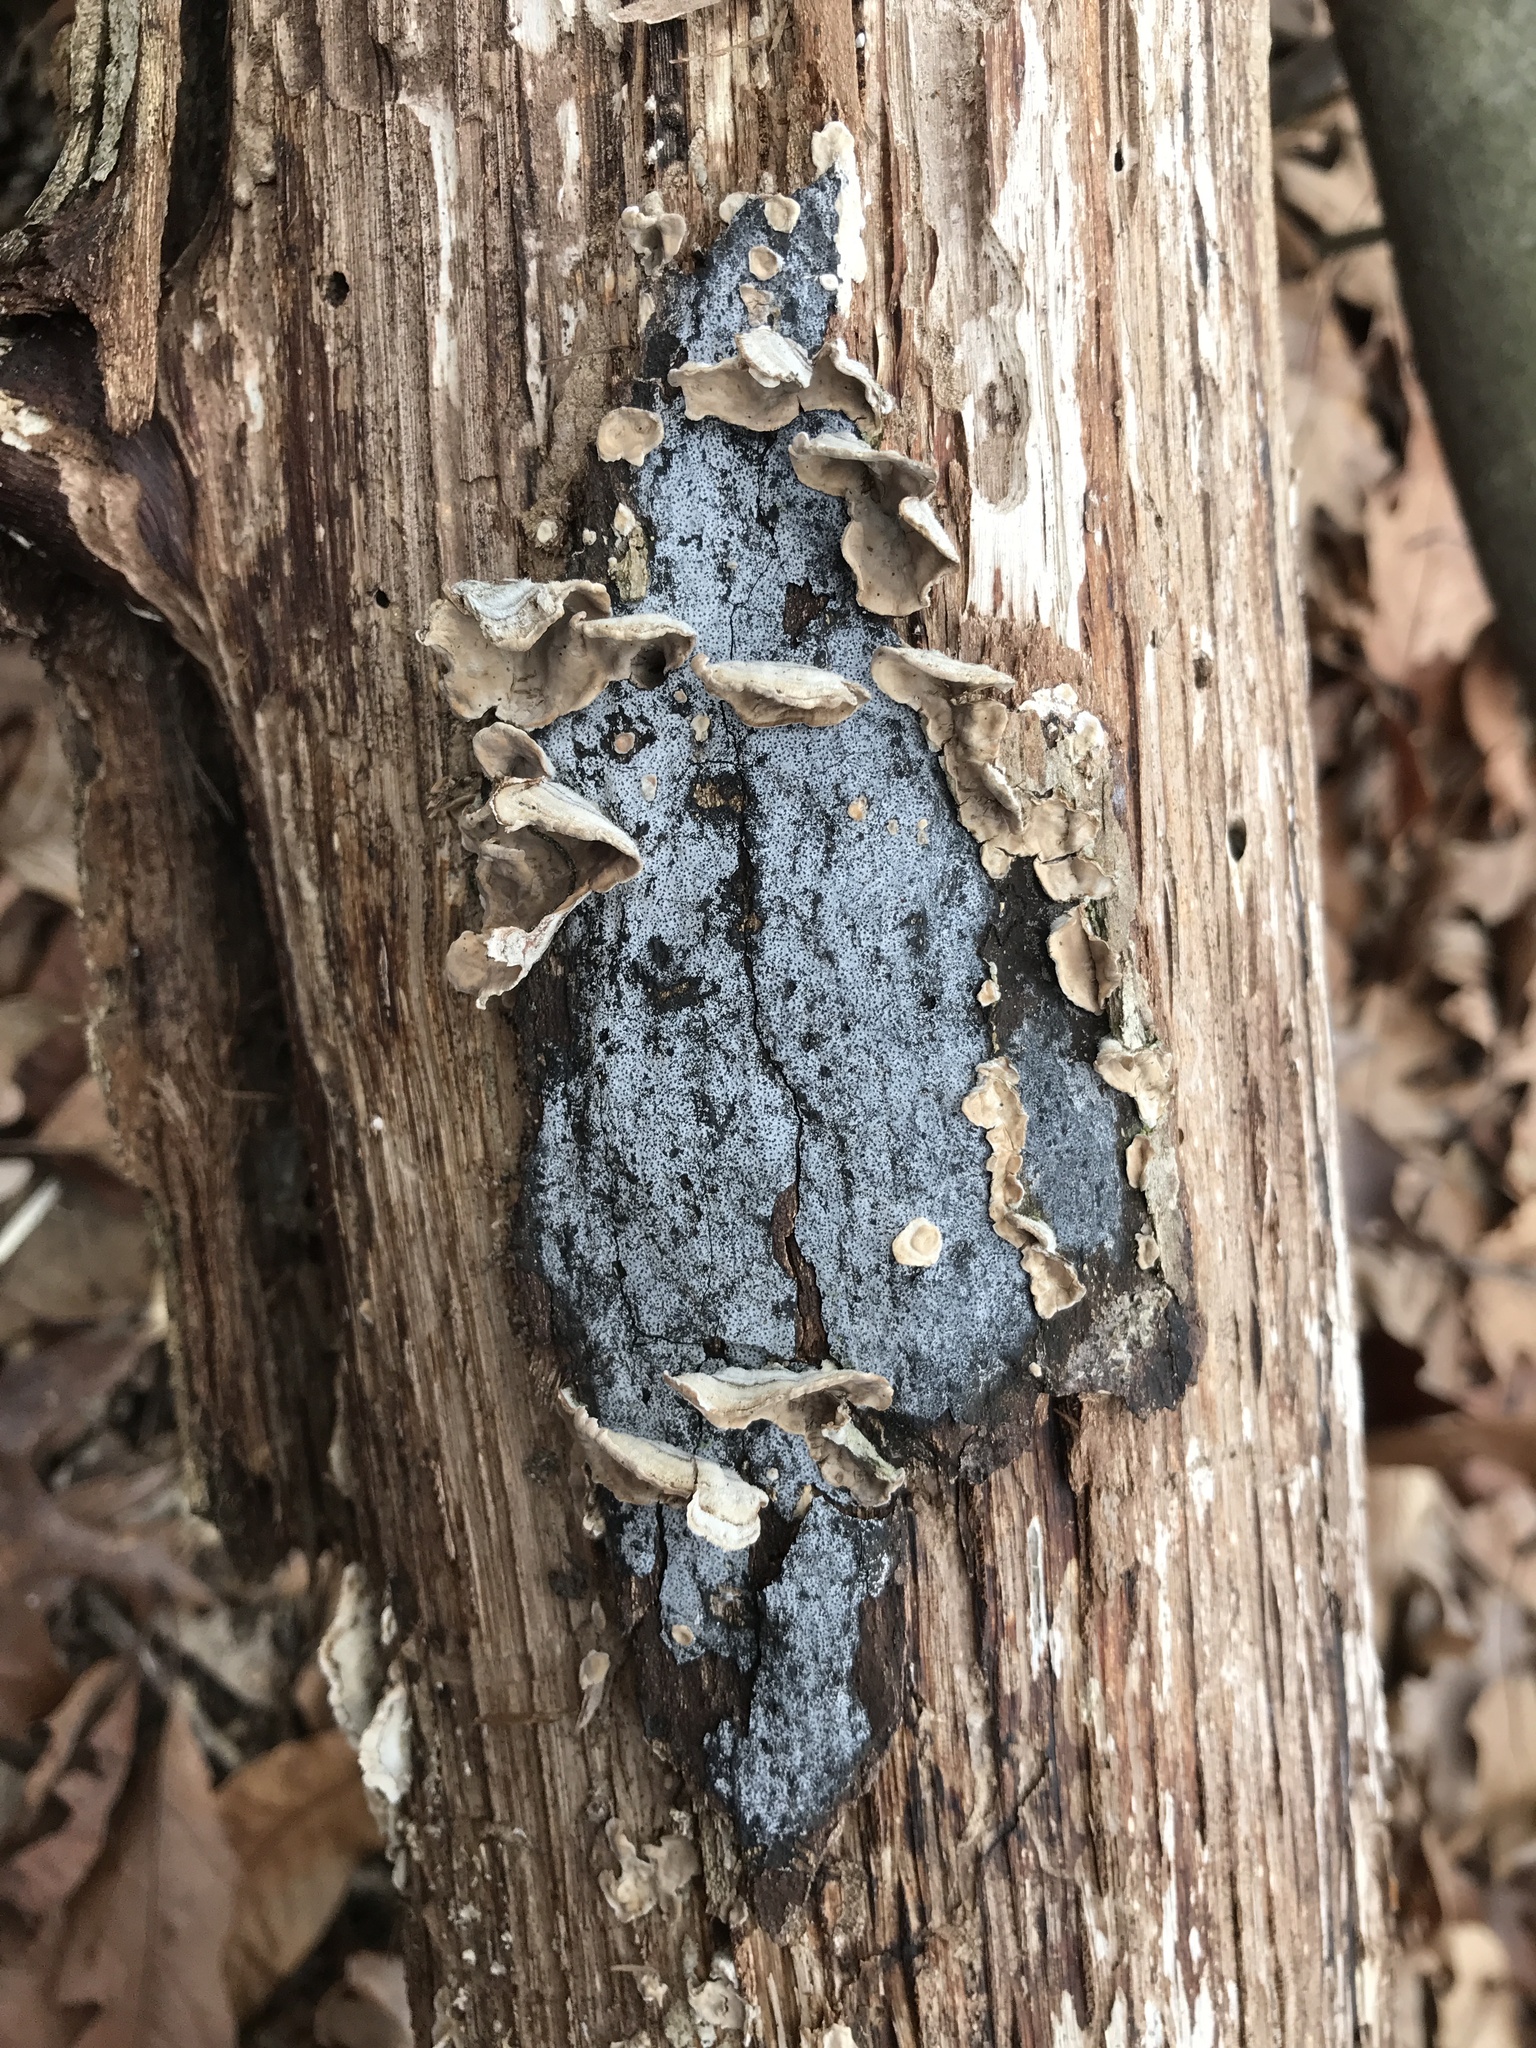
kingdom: Fungi
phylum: Ascomycota
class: Sordariomycetes
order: Xylariales
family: Graphostromataceae
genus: Biscogniauxia
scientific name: Biscogniauxia atropunctata
